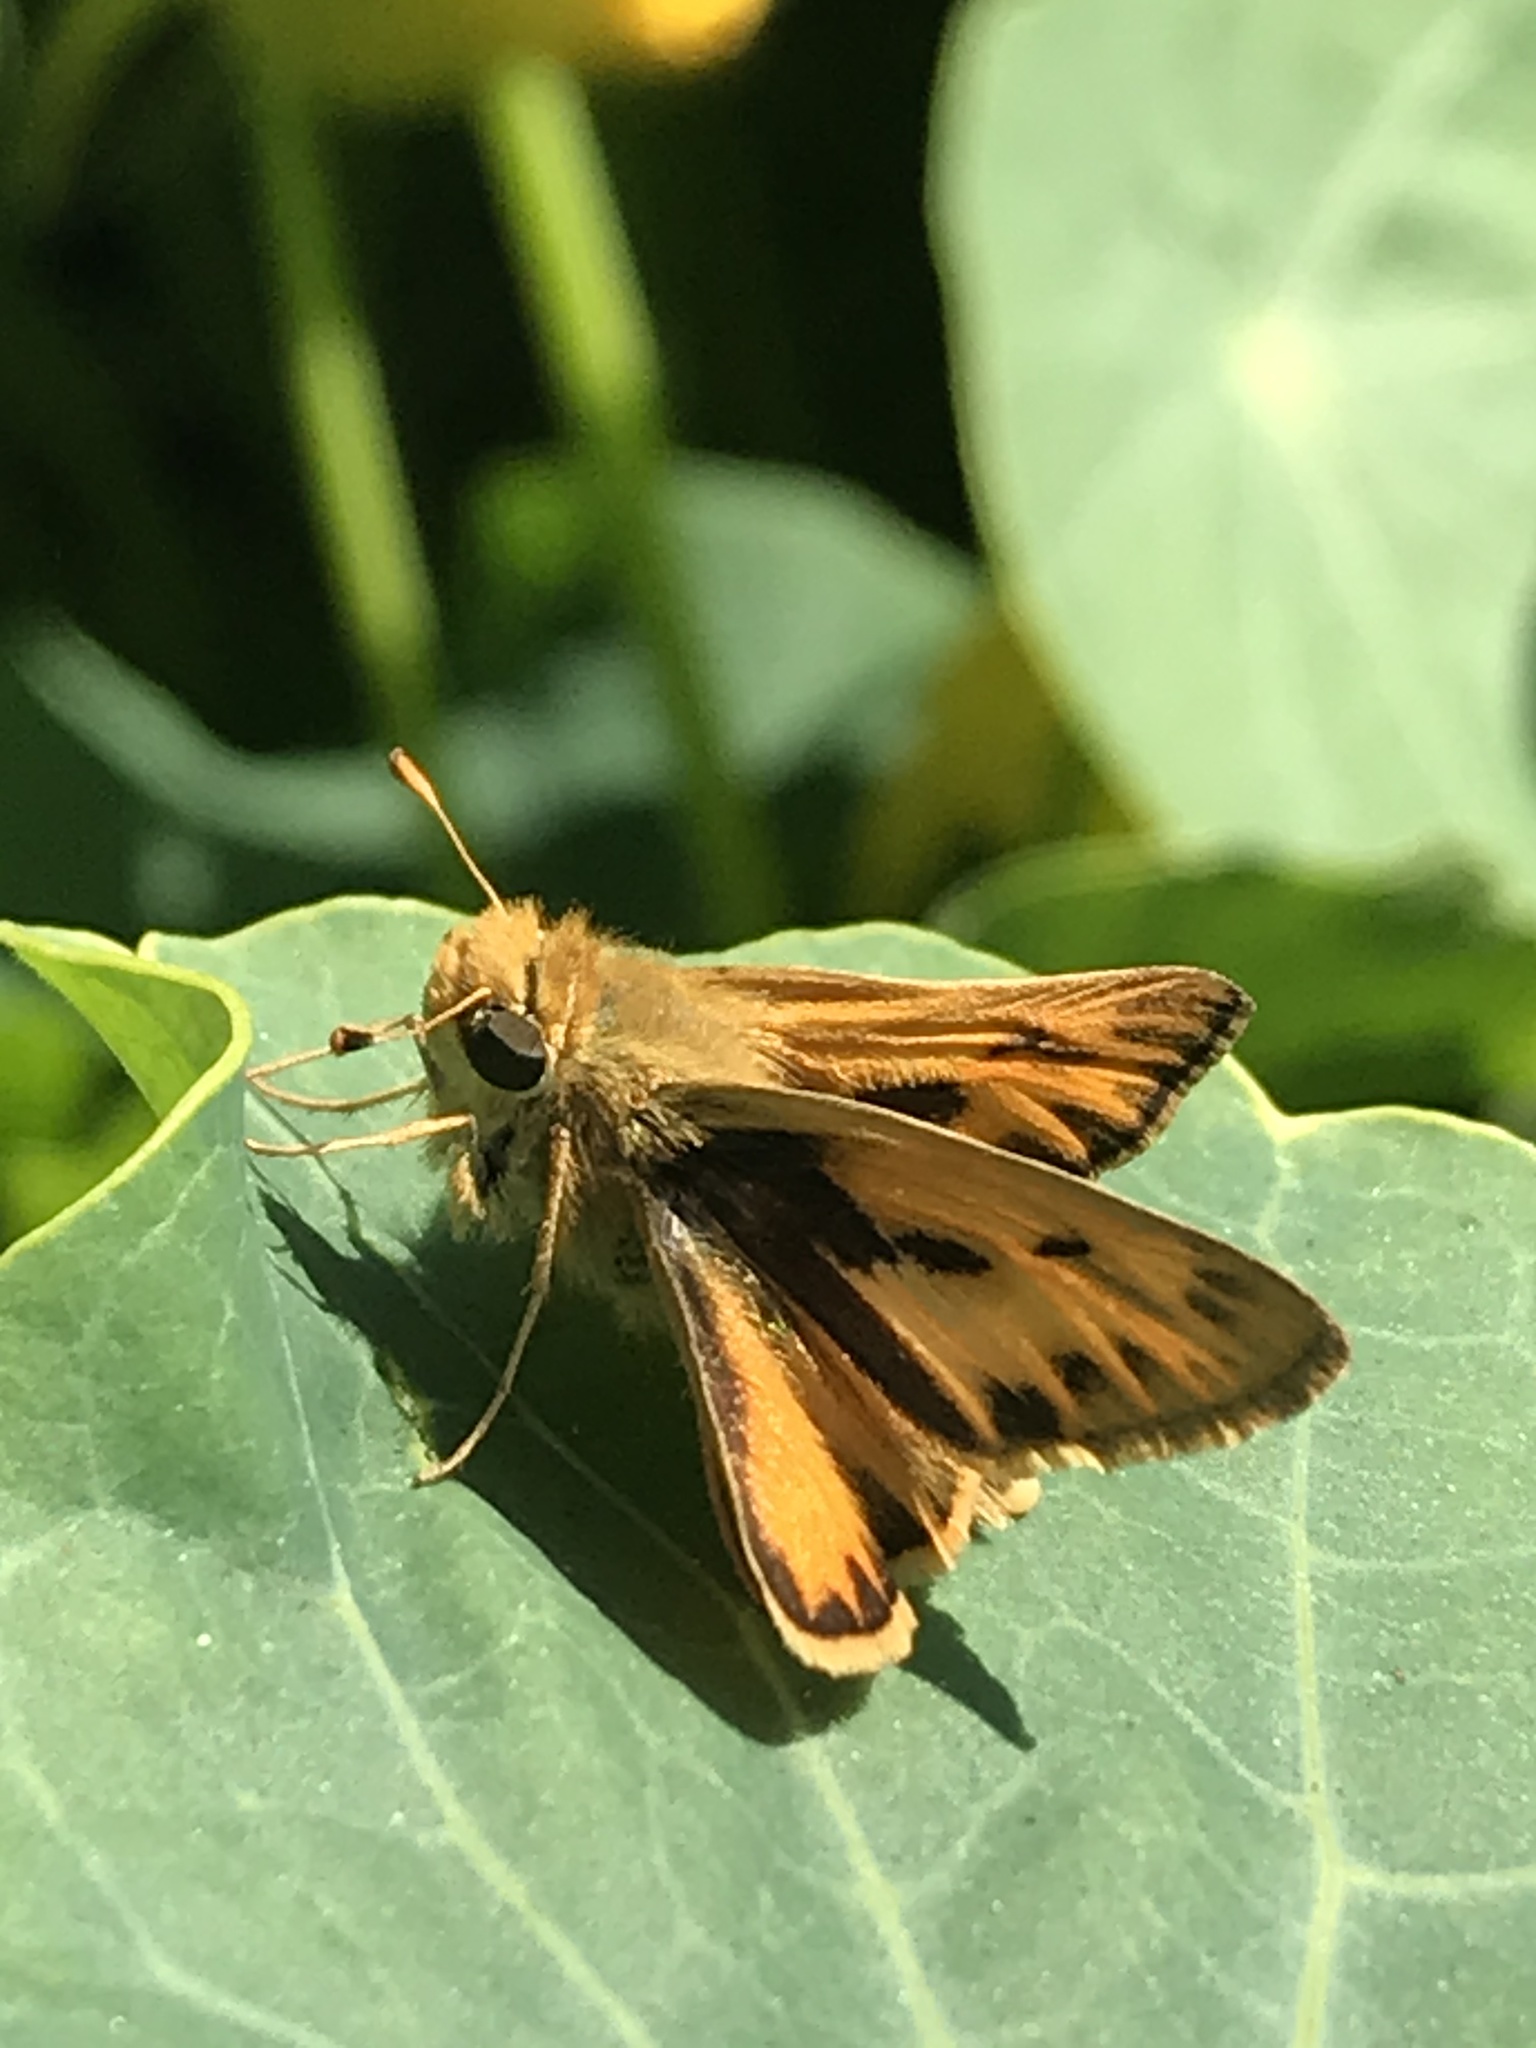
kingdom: Animalia
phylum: Arthropoda
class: Insecta
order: Lepidoptera
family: Hesperiidae
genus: Hylephila
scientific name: Hylephila phyleus
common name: Fiery skipper
